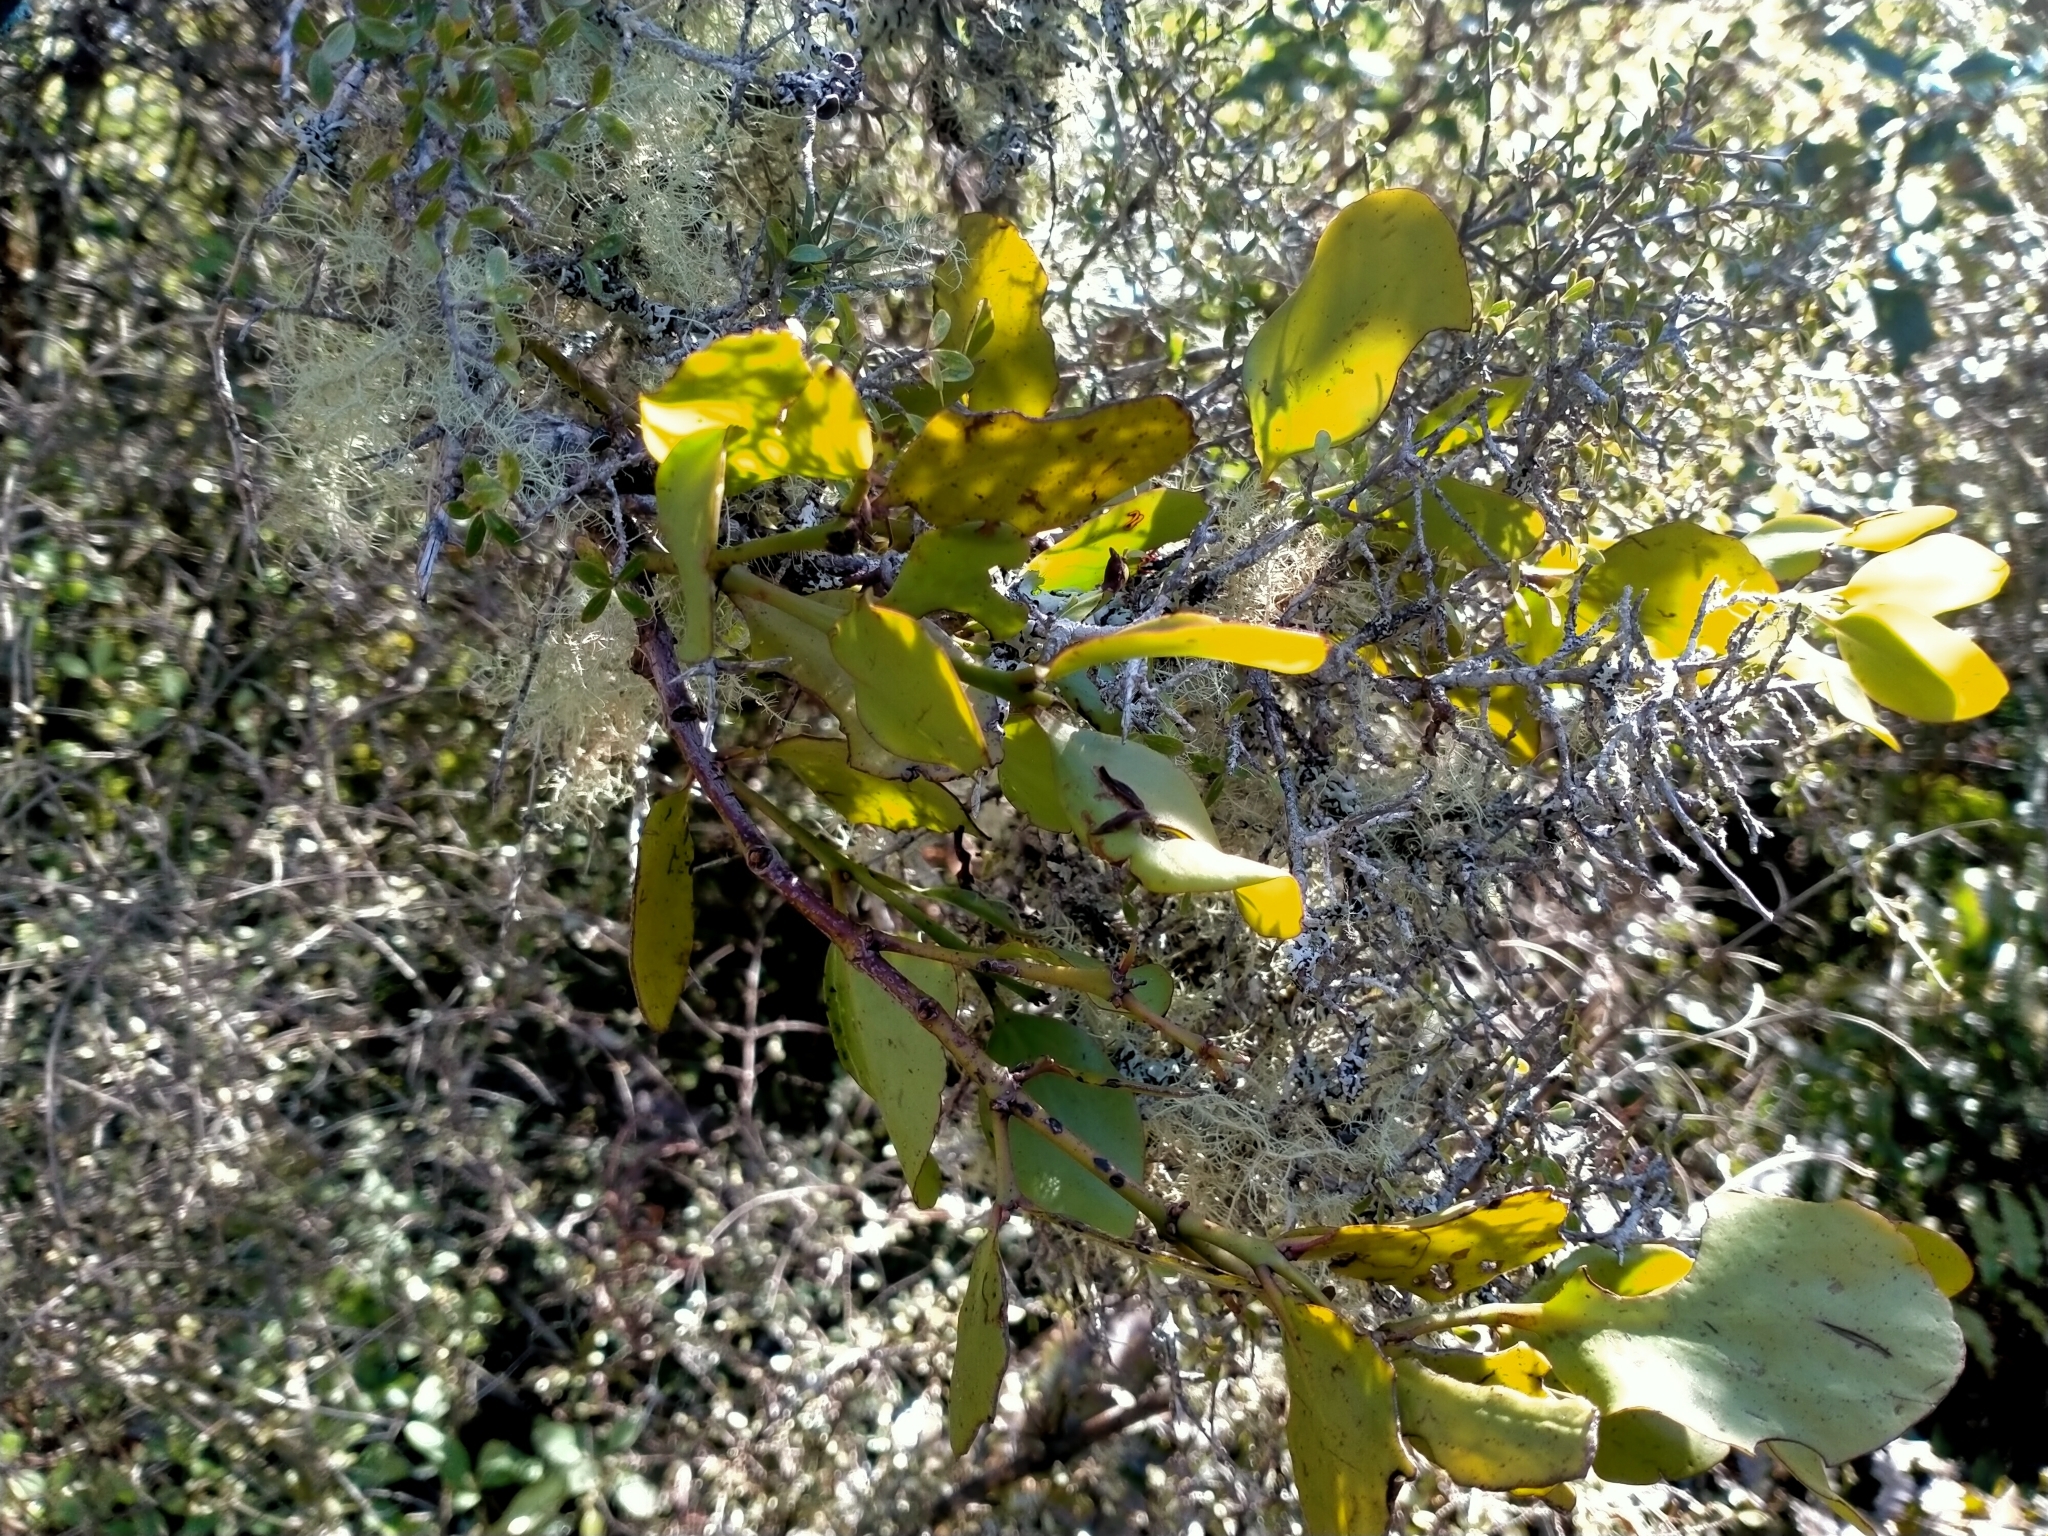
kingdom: Plantae
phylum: Tracheophyta
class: Magnoliopsida
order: Santalales
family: Loranthaceae
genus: Ileostylus
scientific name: Ileostylus micranthus
